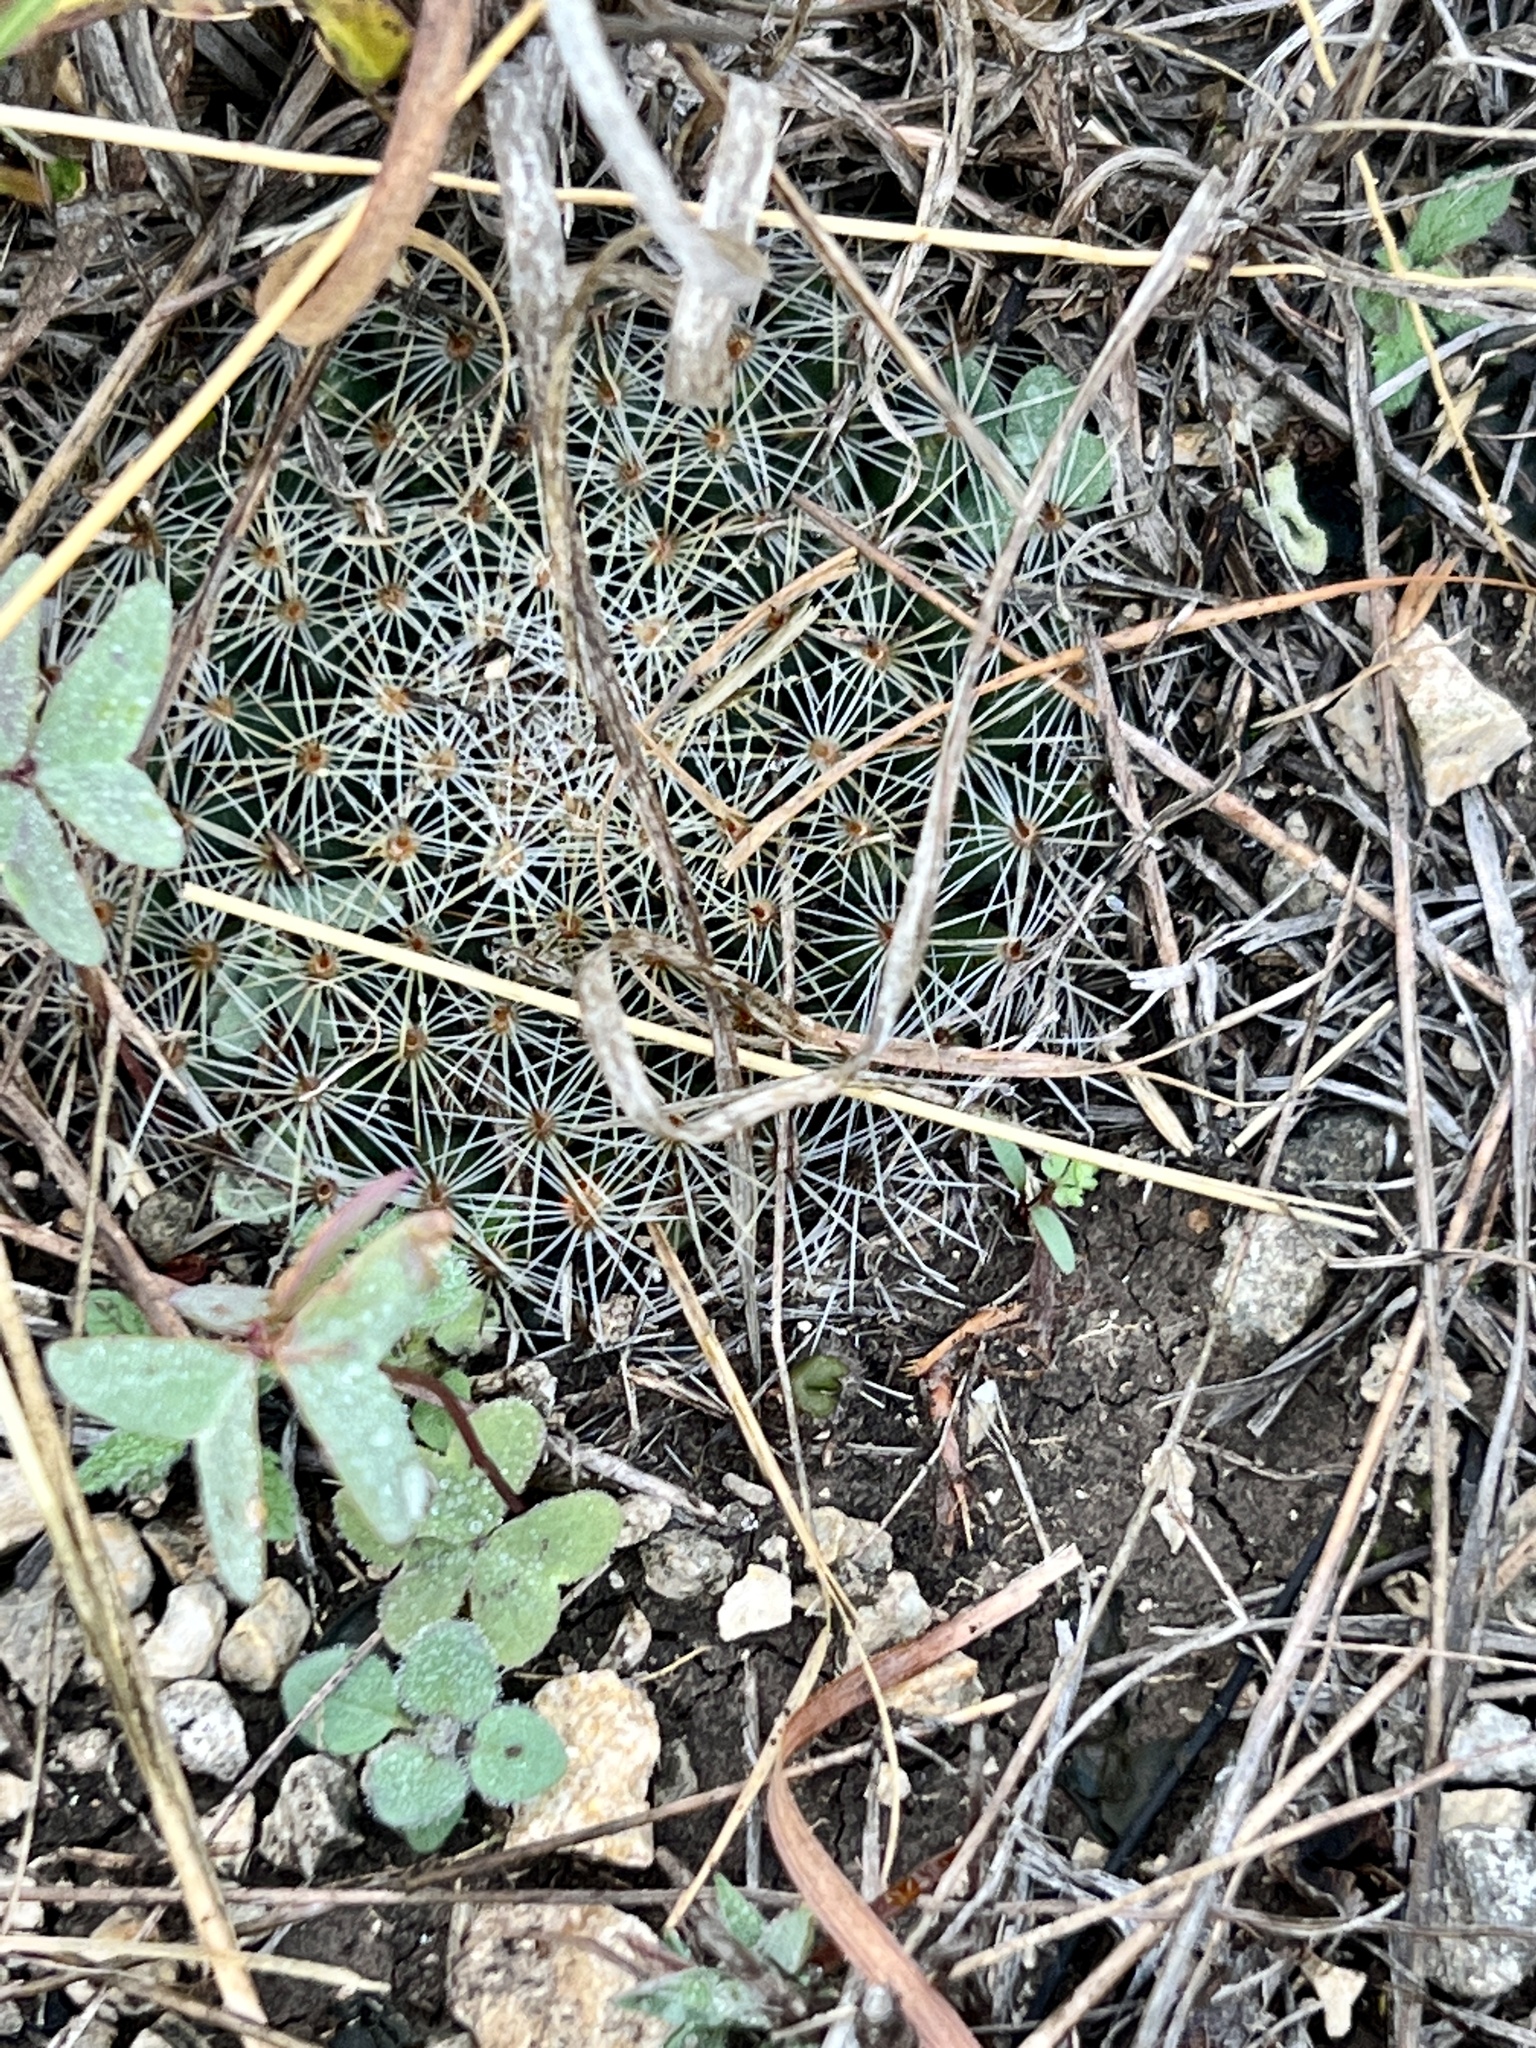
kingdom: Plantae
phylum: Tracheophyta
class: Magnoliopsida
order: Caryophyllales
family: Cactaceae
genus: Mammillaria
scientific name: Mammillaria heyderi
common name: Little nipple cactus
